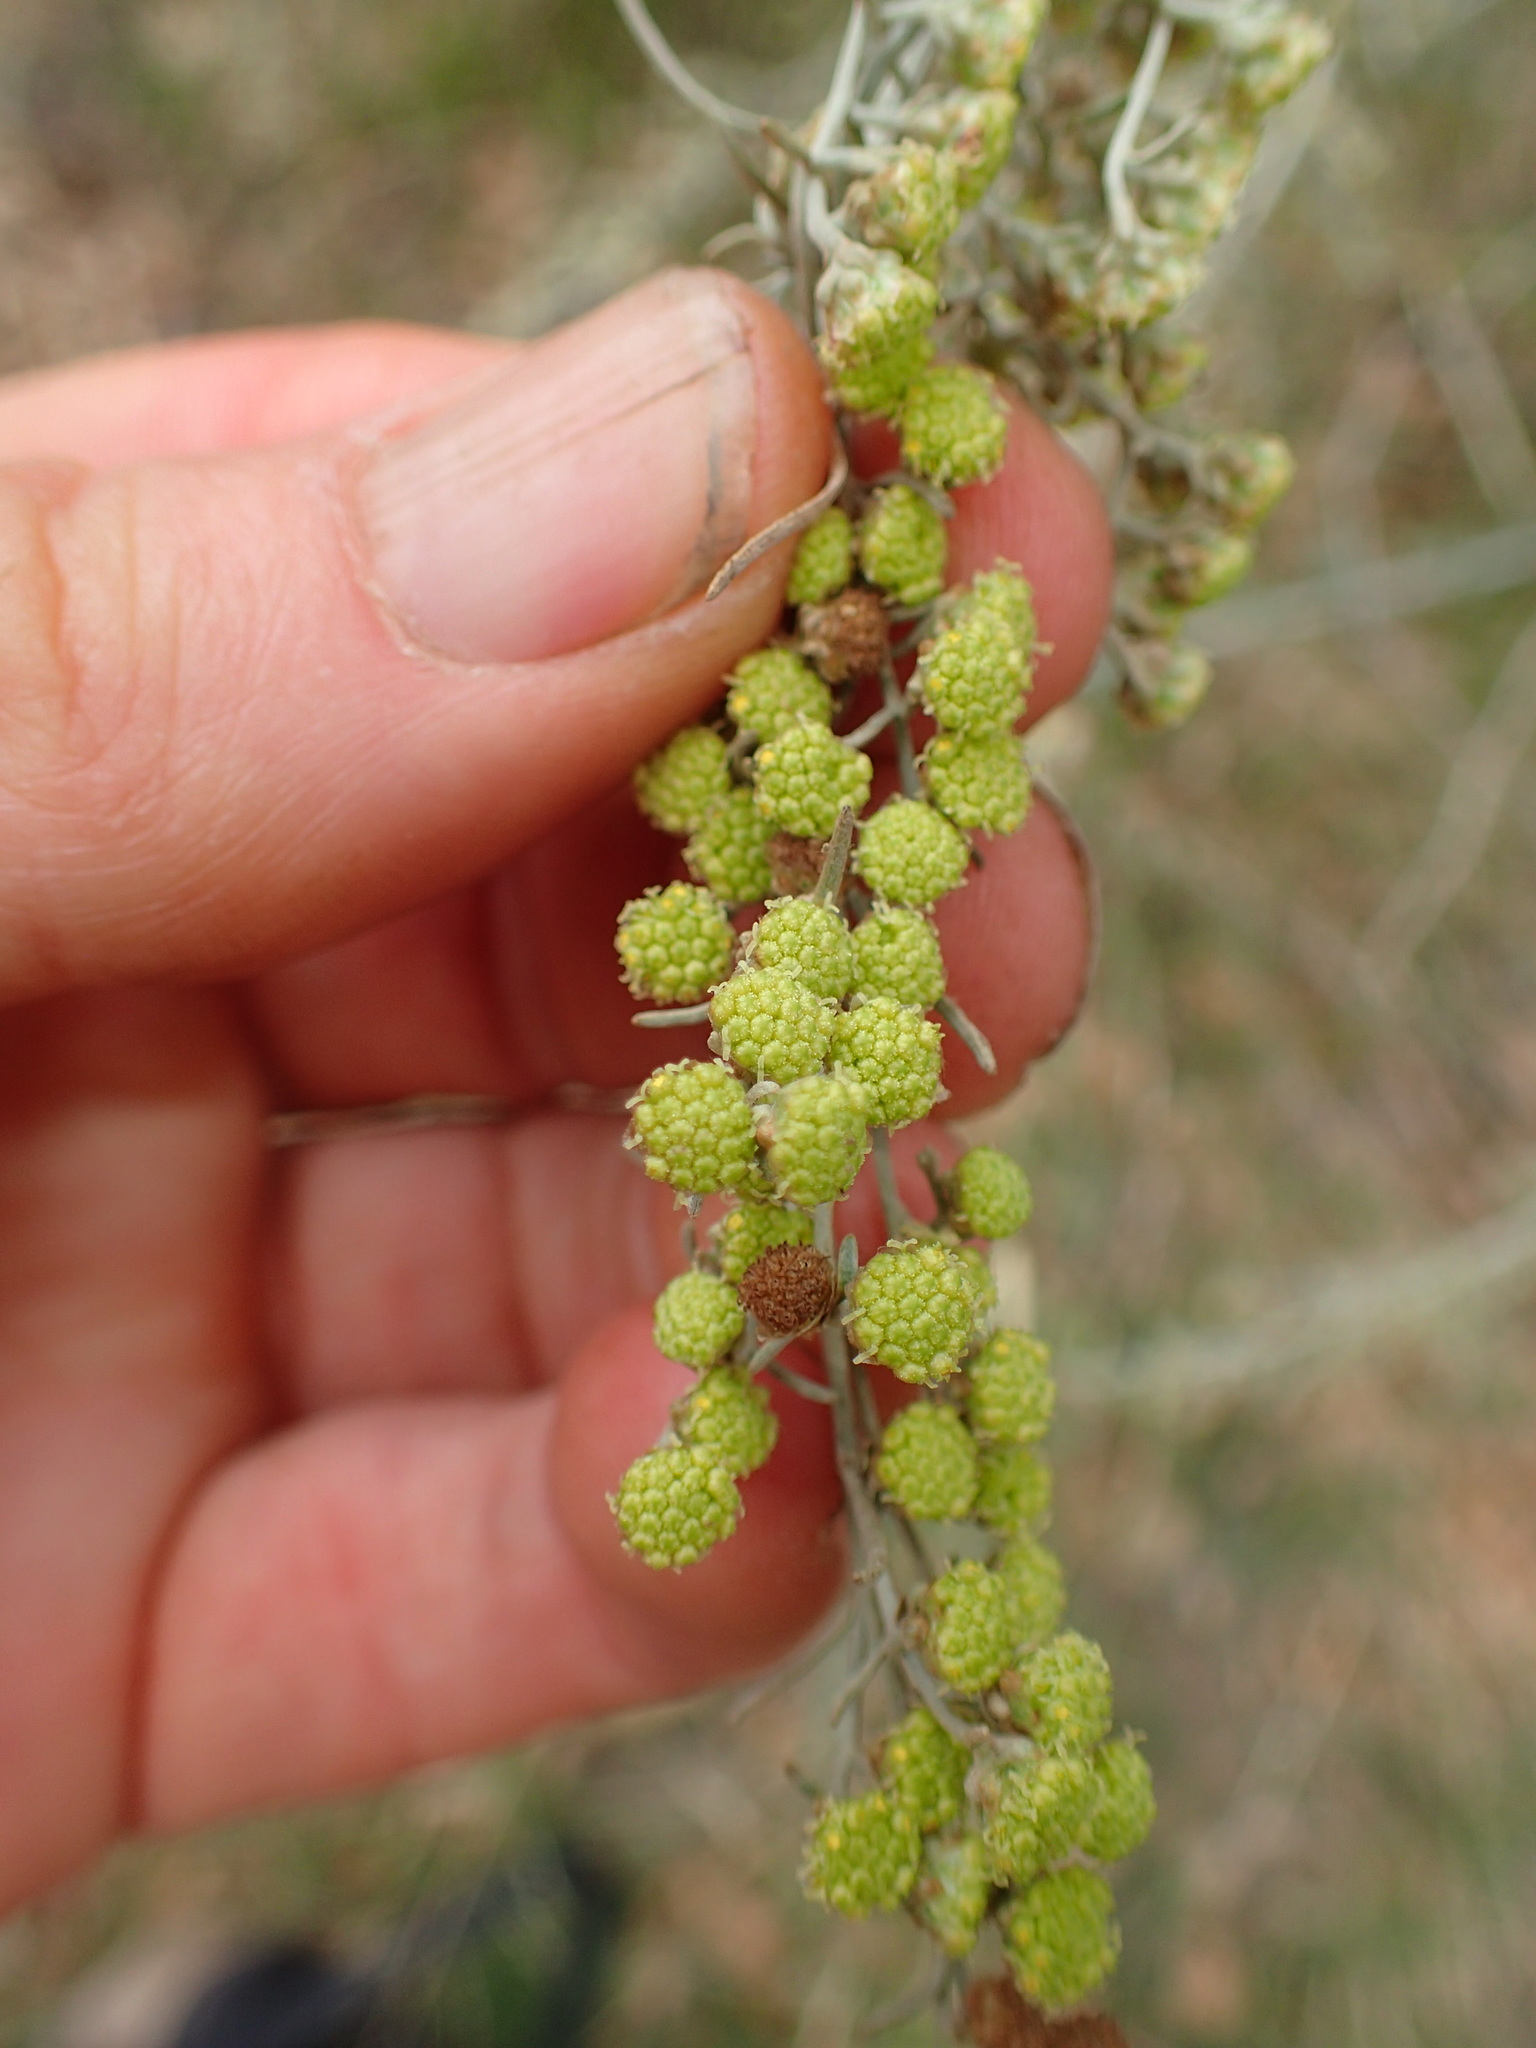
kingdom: Plantae
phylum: Tracheophyta
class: Magnoliopsida
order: Asterales
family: Asteraceae
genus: Artemisia
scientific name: Artemisia californica
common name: California sagebrush
